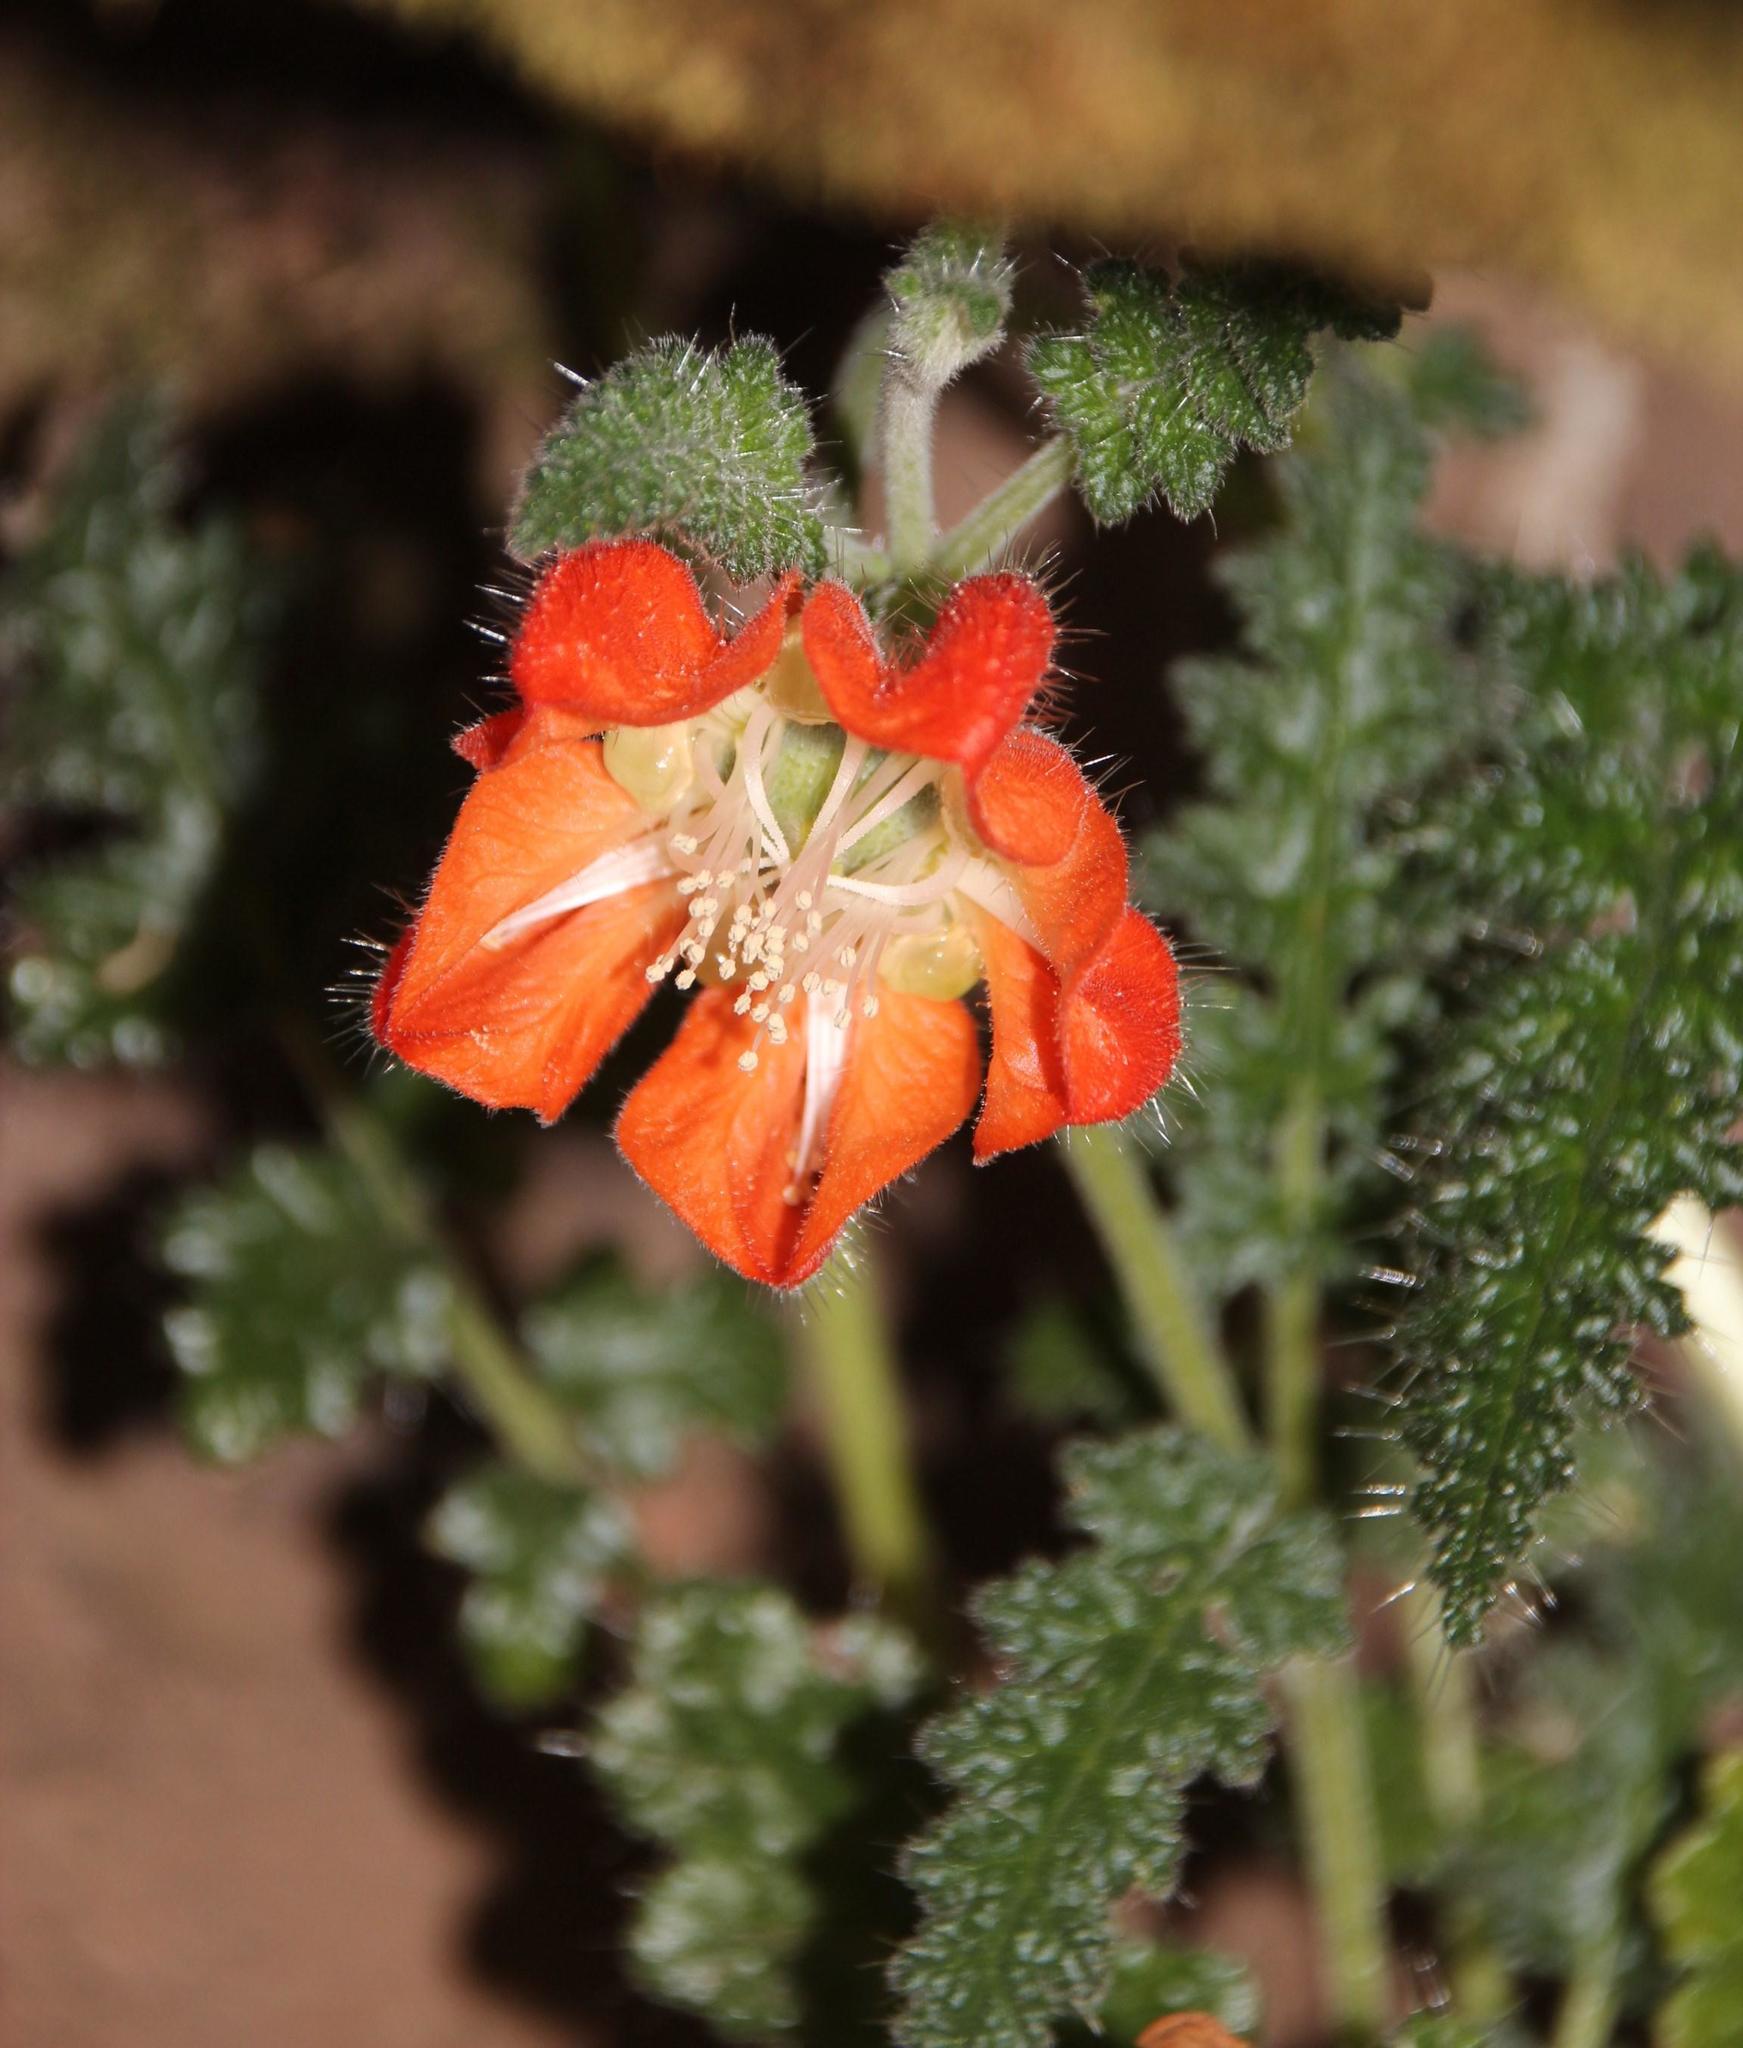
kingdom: Plantae
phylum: Tracheophyta
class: Magnoliopsida
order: Cornales
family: Loasaceae
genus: Caiophora
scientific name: Caiophora pentlandii
